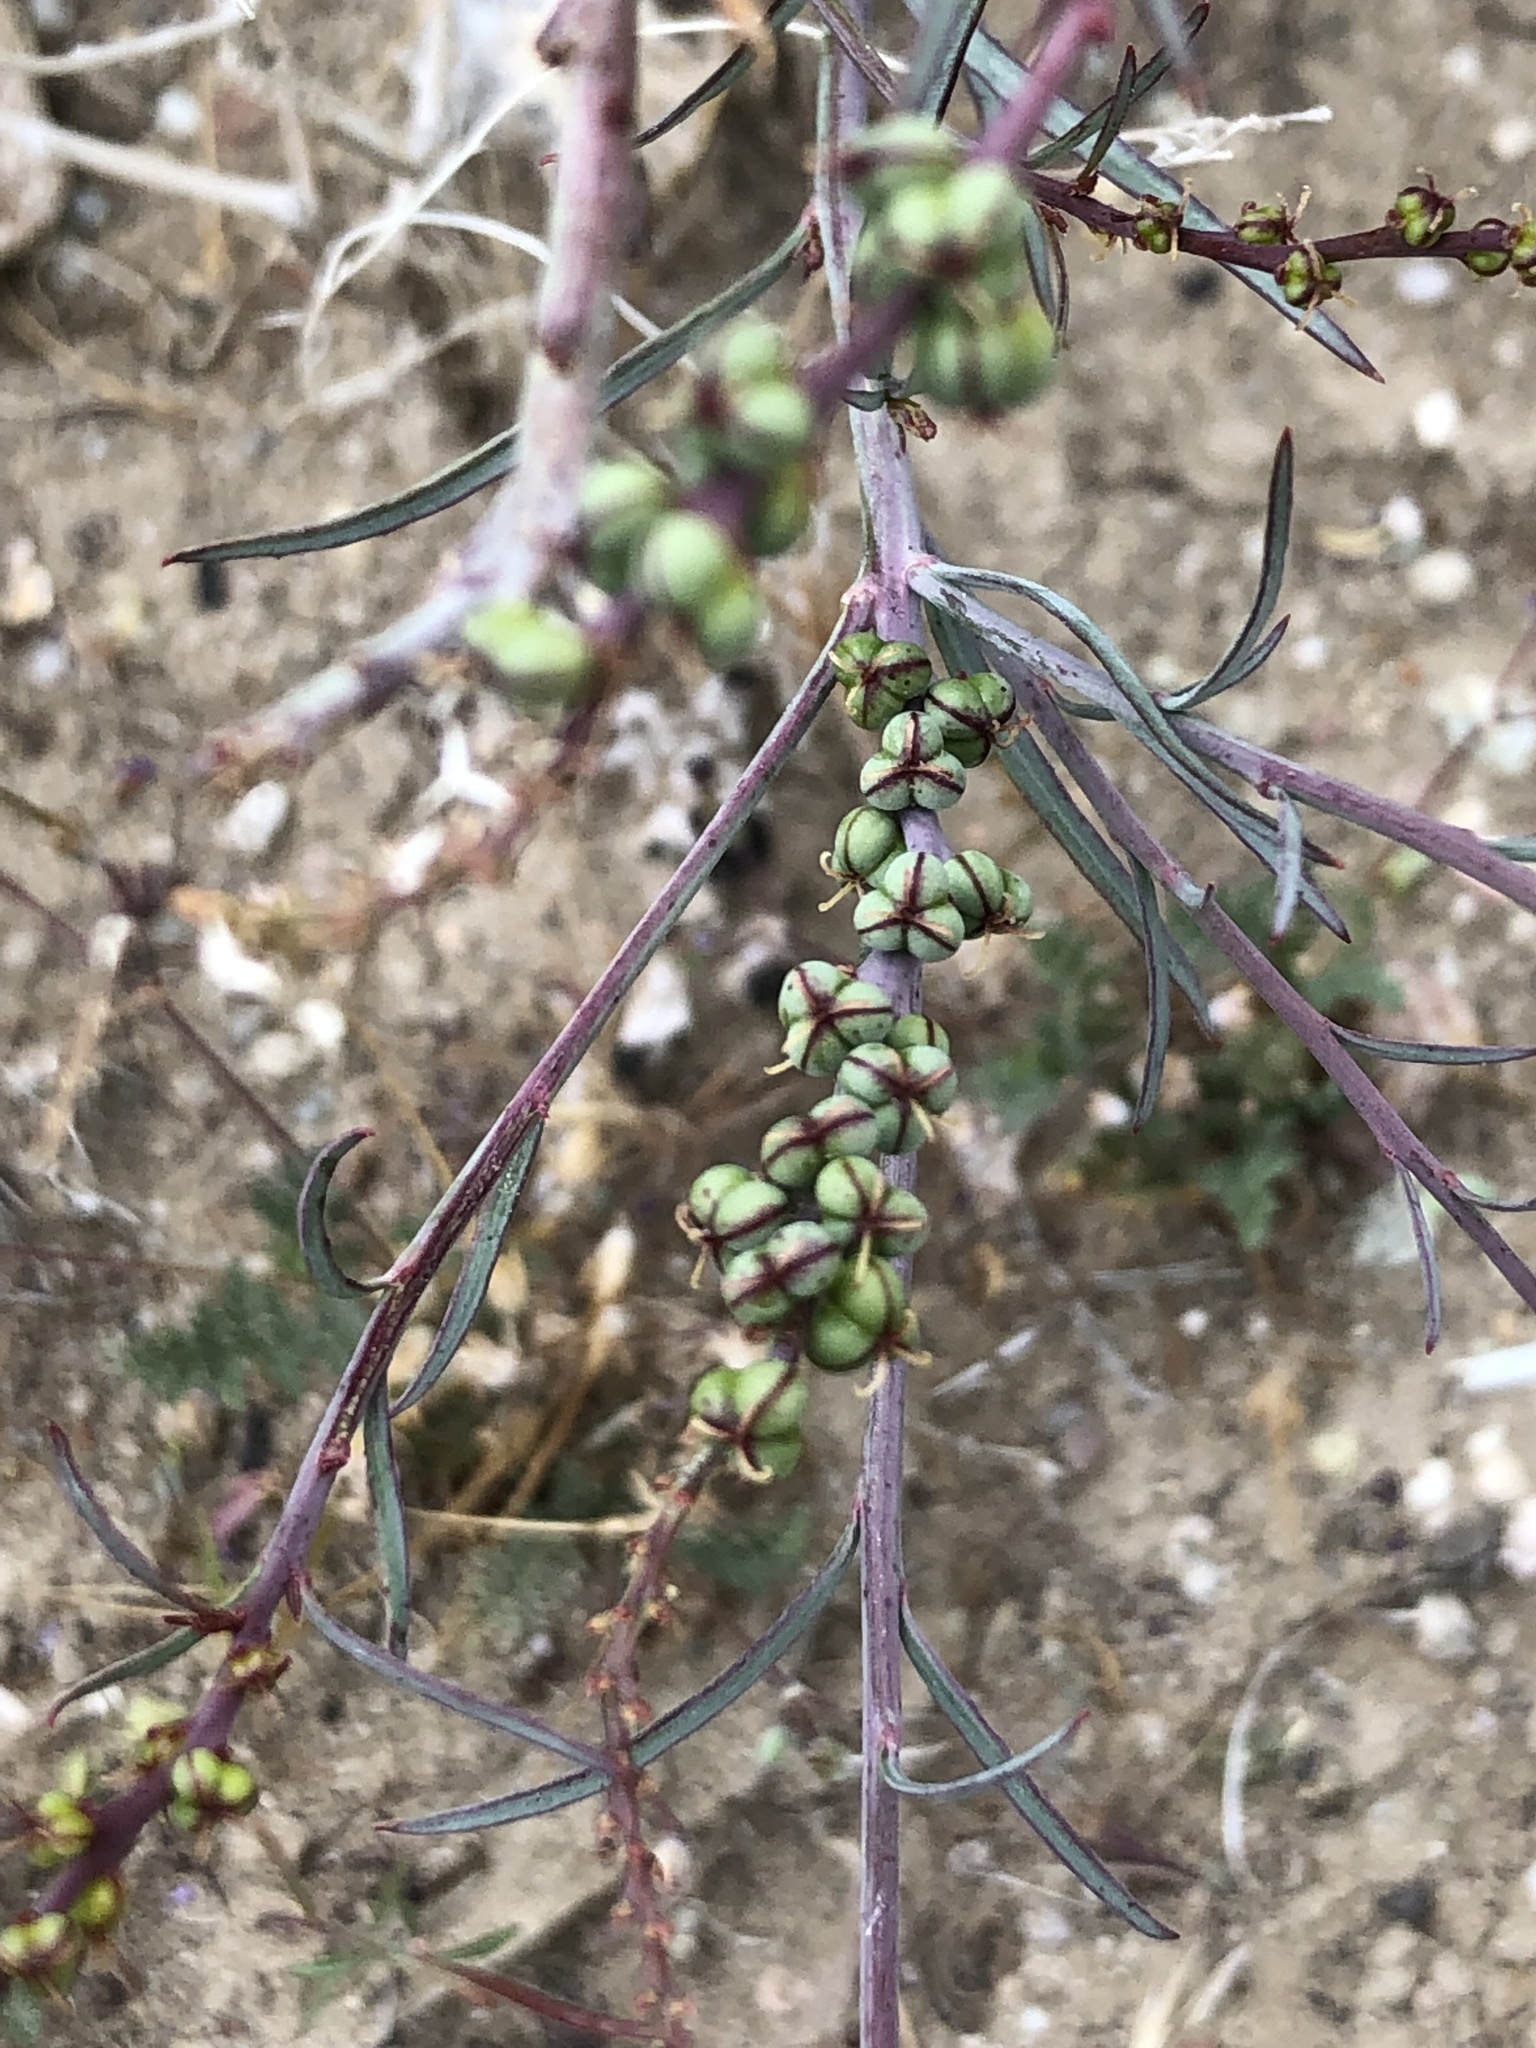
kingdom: Plantae
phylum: Tracheophyta
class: Magnoliopsida
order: Malpighiales
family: Euphorbiaceae
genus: Stillingia
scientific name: Stillingia linearifolia
